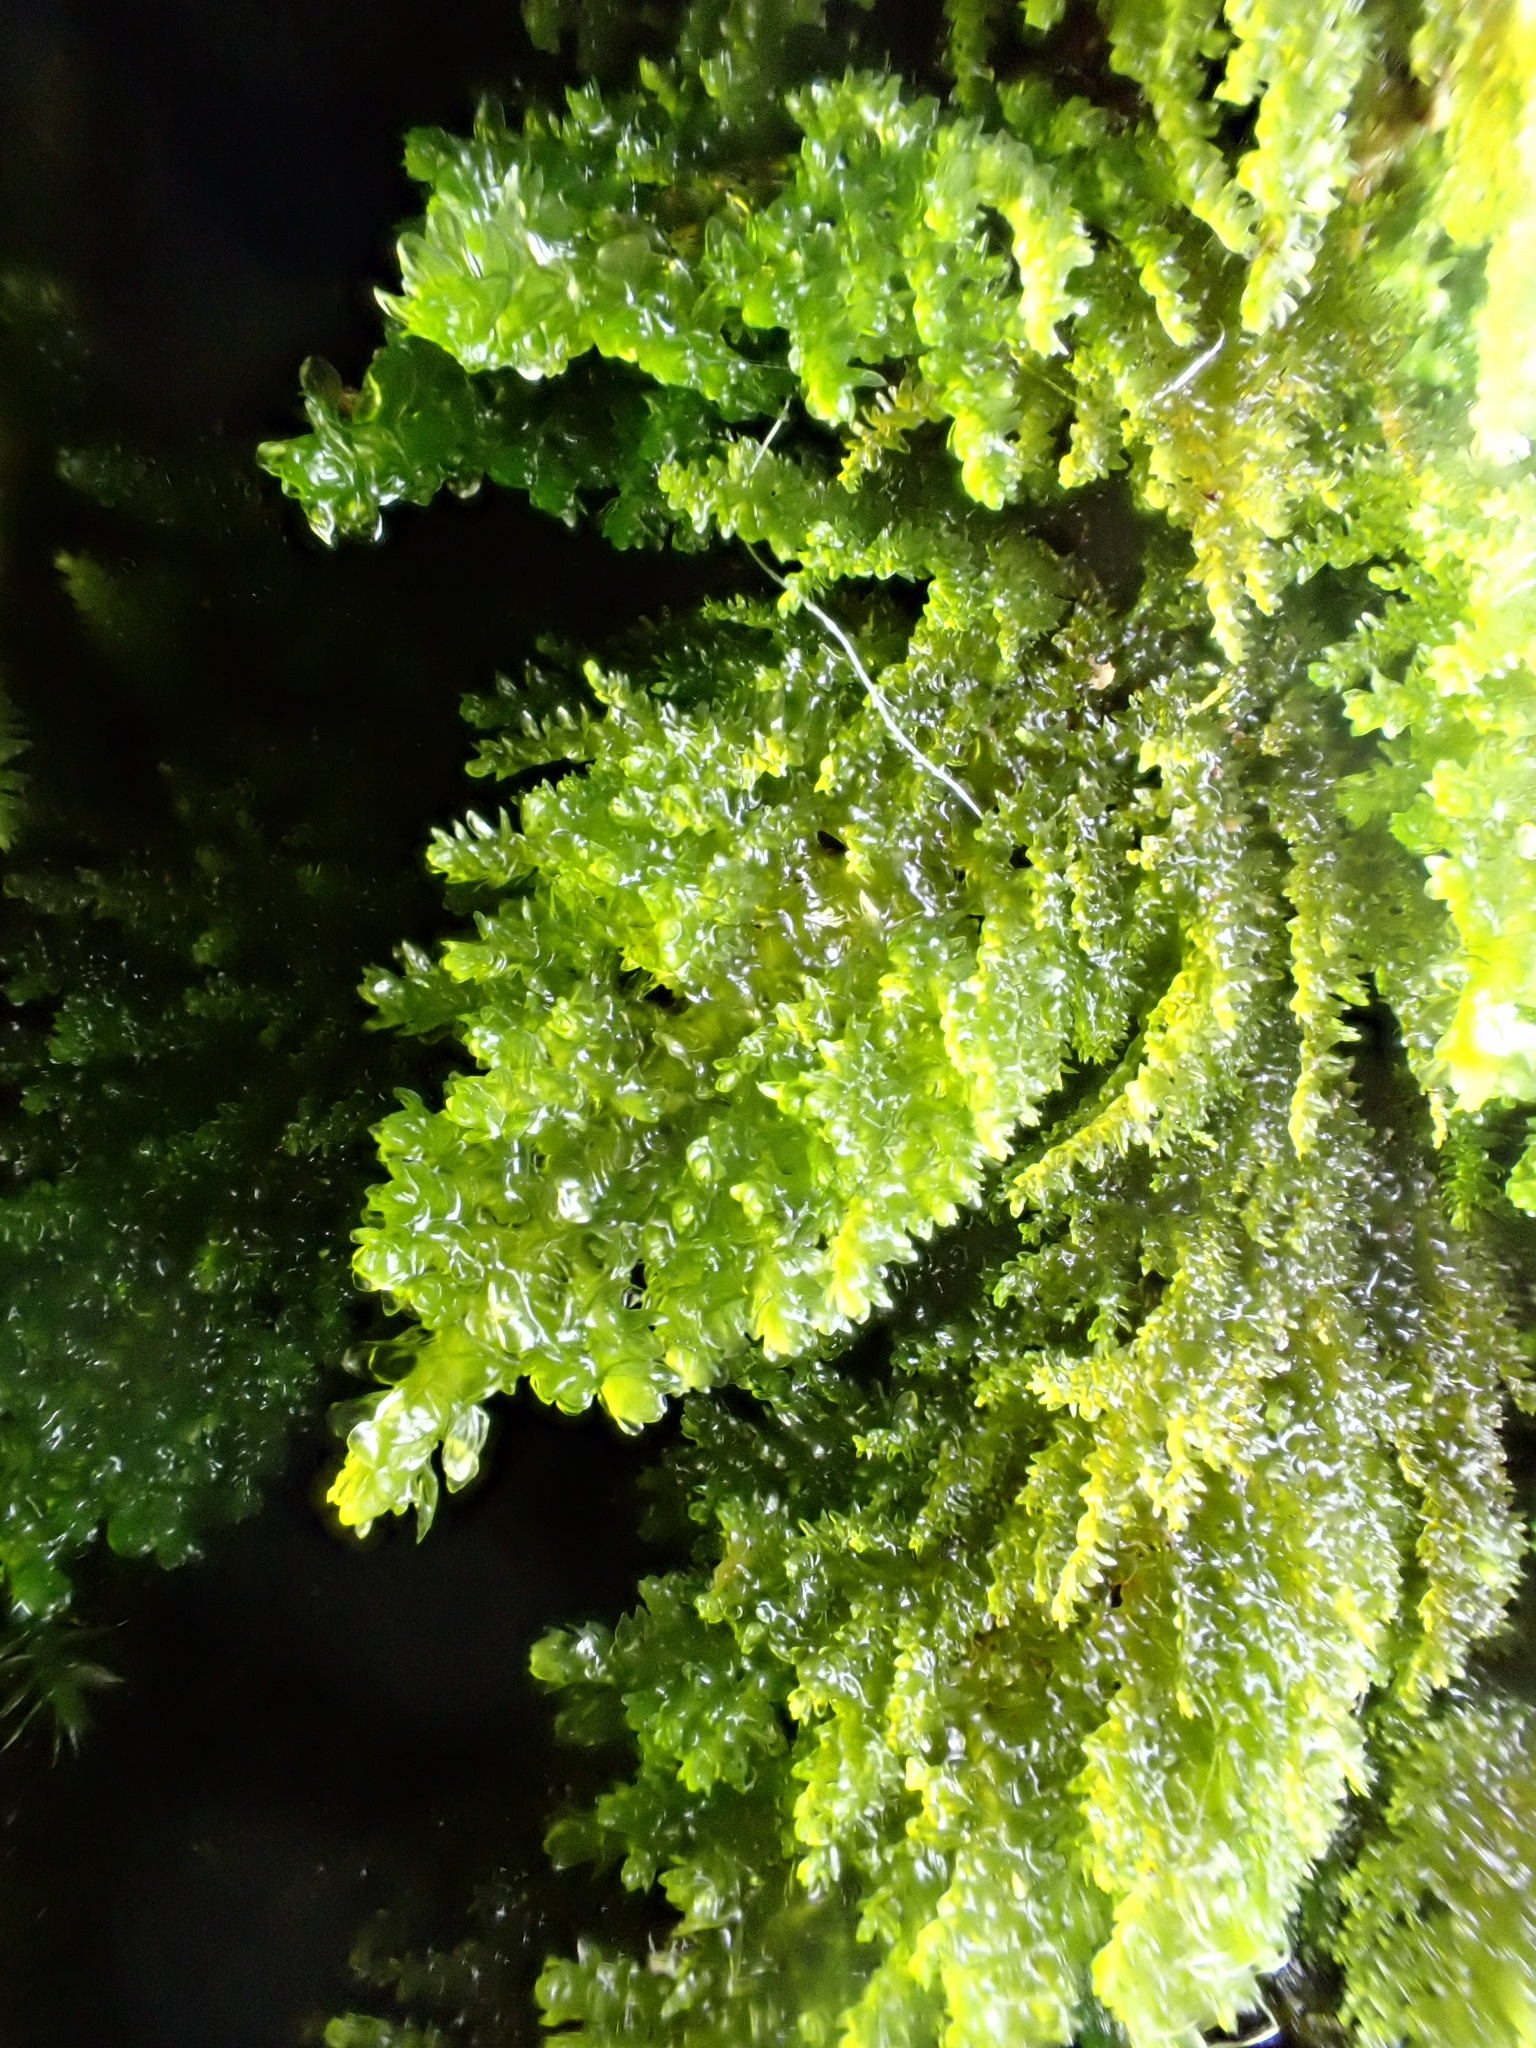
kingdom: Plantae
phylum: Bryophyta
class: Bryopsida
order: Hypnales
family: Neckeraceae
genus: Leptodon
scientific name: Leptodon smithii
